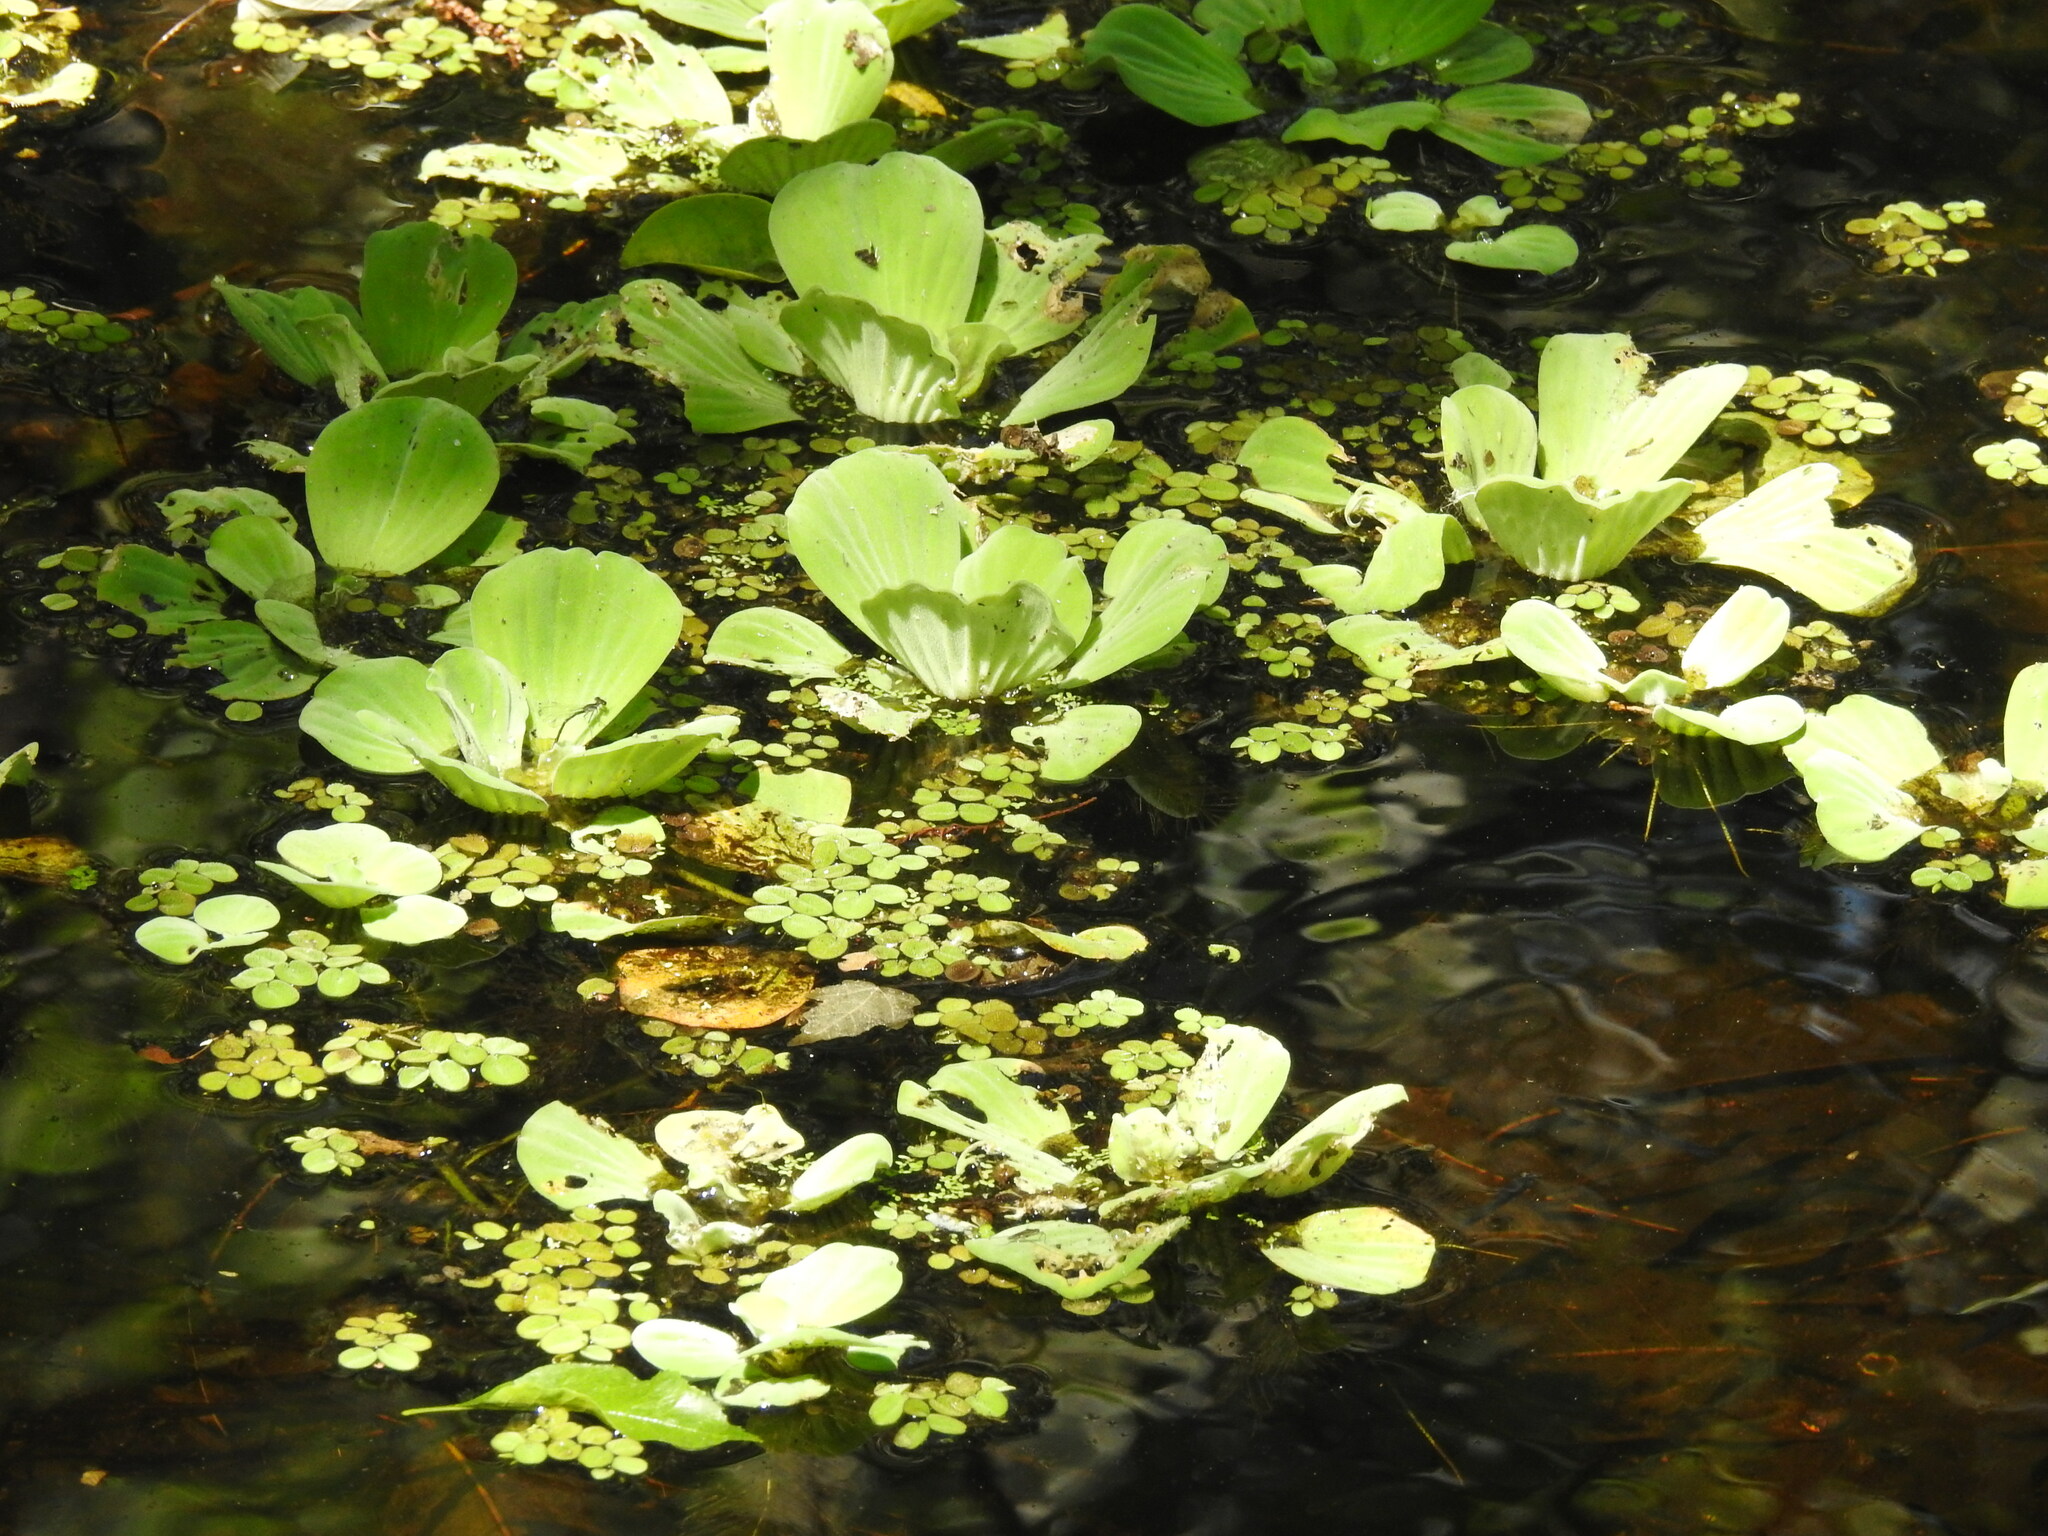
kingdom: Plantae
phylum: Tracheophyta
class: Liliopsida
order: Alismatales
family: Araceae
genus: Pistia
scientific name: Pistia stratiotes
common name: Water lettuce
